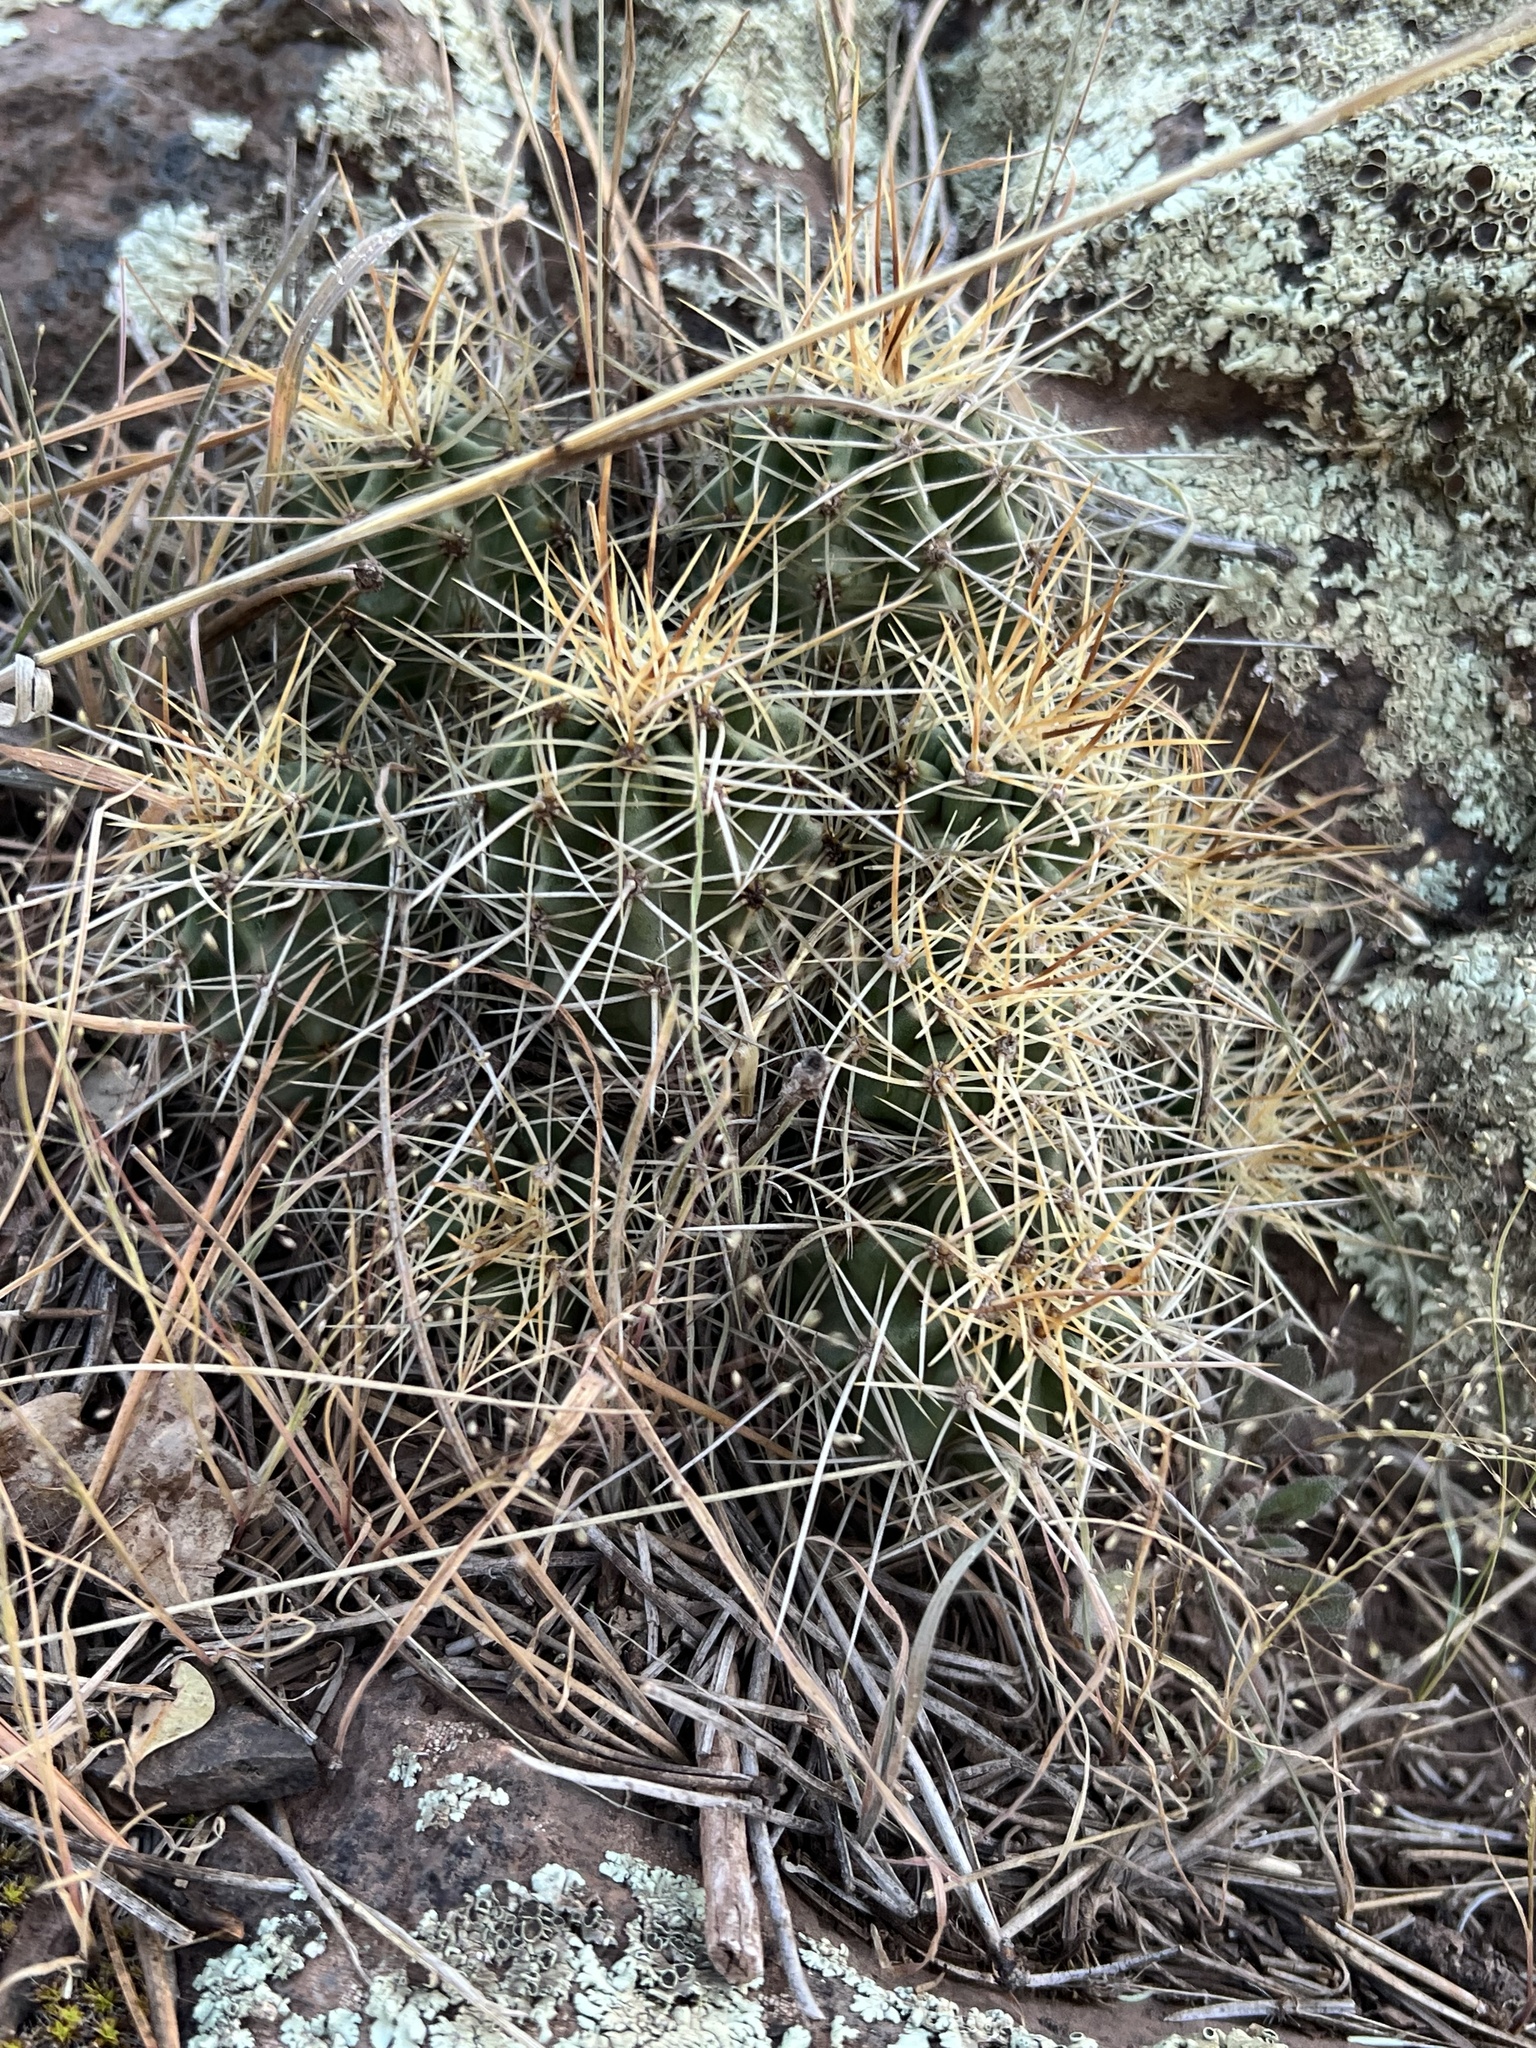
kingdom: Plantae
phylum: Tracheophyta
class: Magnoliopsida
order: Caryophyllales
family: Cactaceae
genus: Echinocereus
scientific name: Echinocereus bakeri
